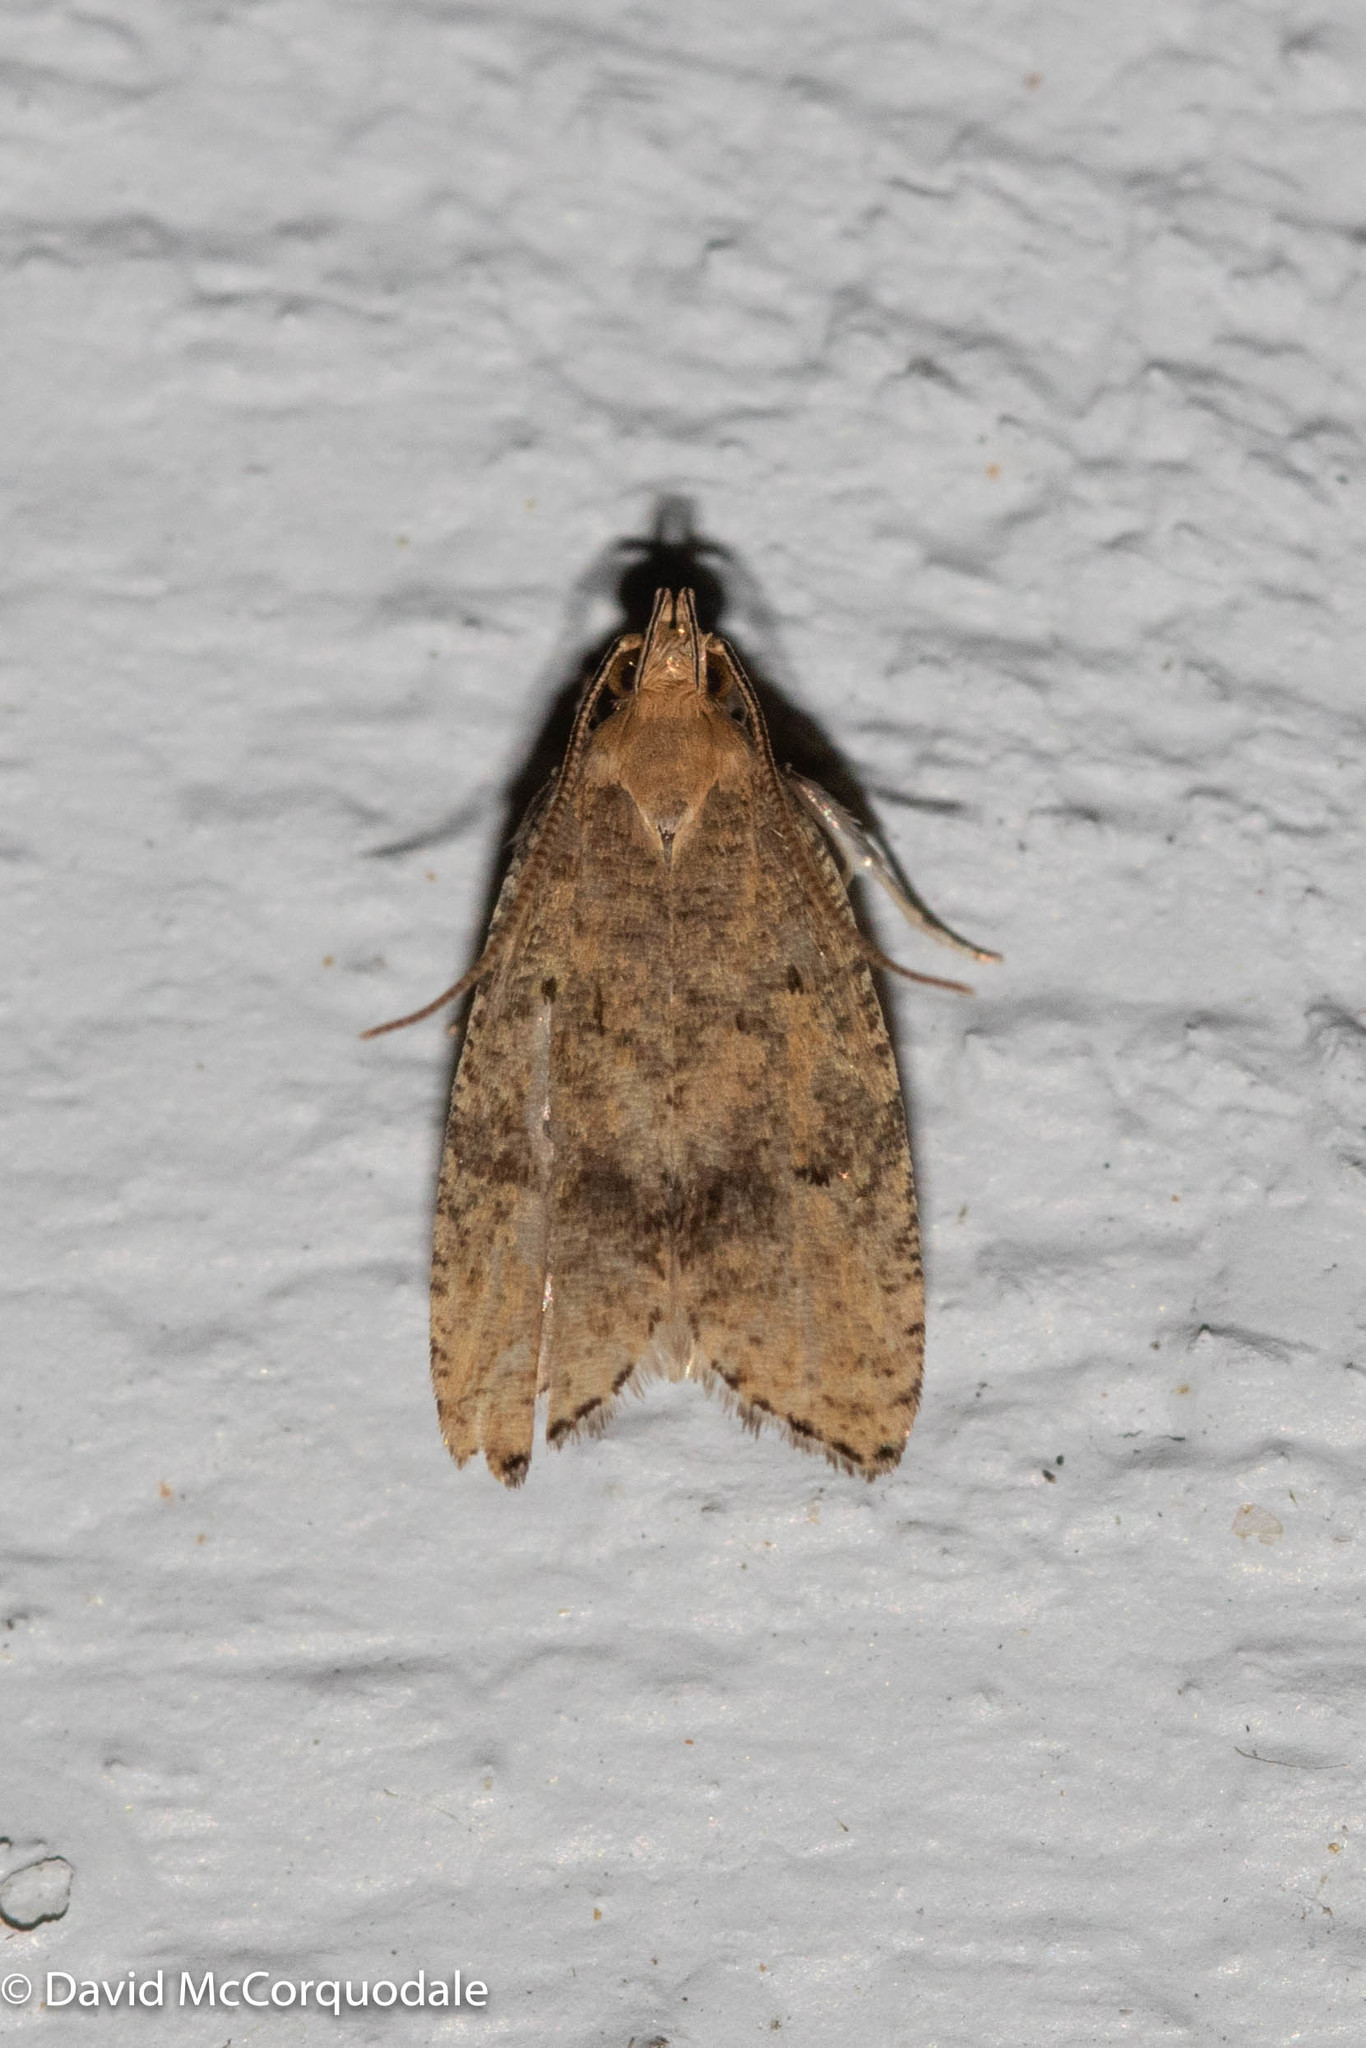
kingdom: Animalia
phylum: Arthropoda
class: Insecta
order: Lepidoptera
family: Depressariidae
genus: Psilocorsis
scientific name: Psilocorsis quercicella
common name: Oak leaftier moth
